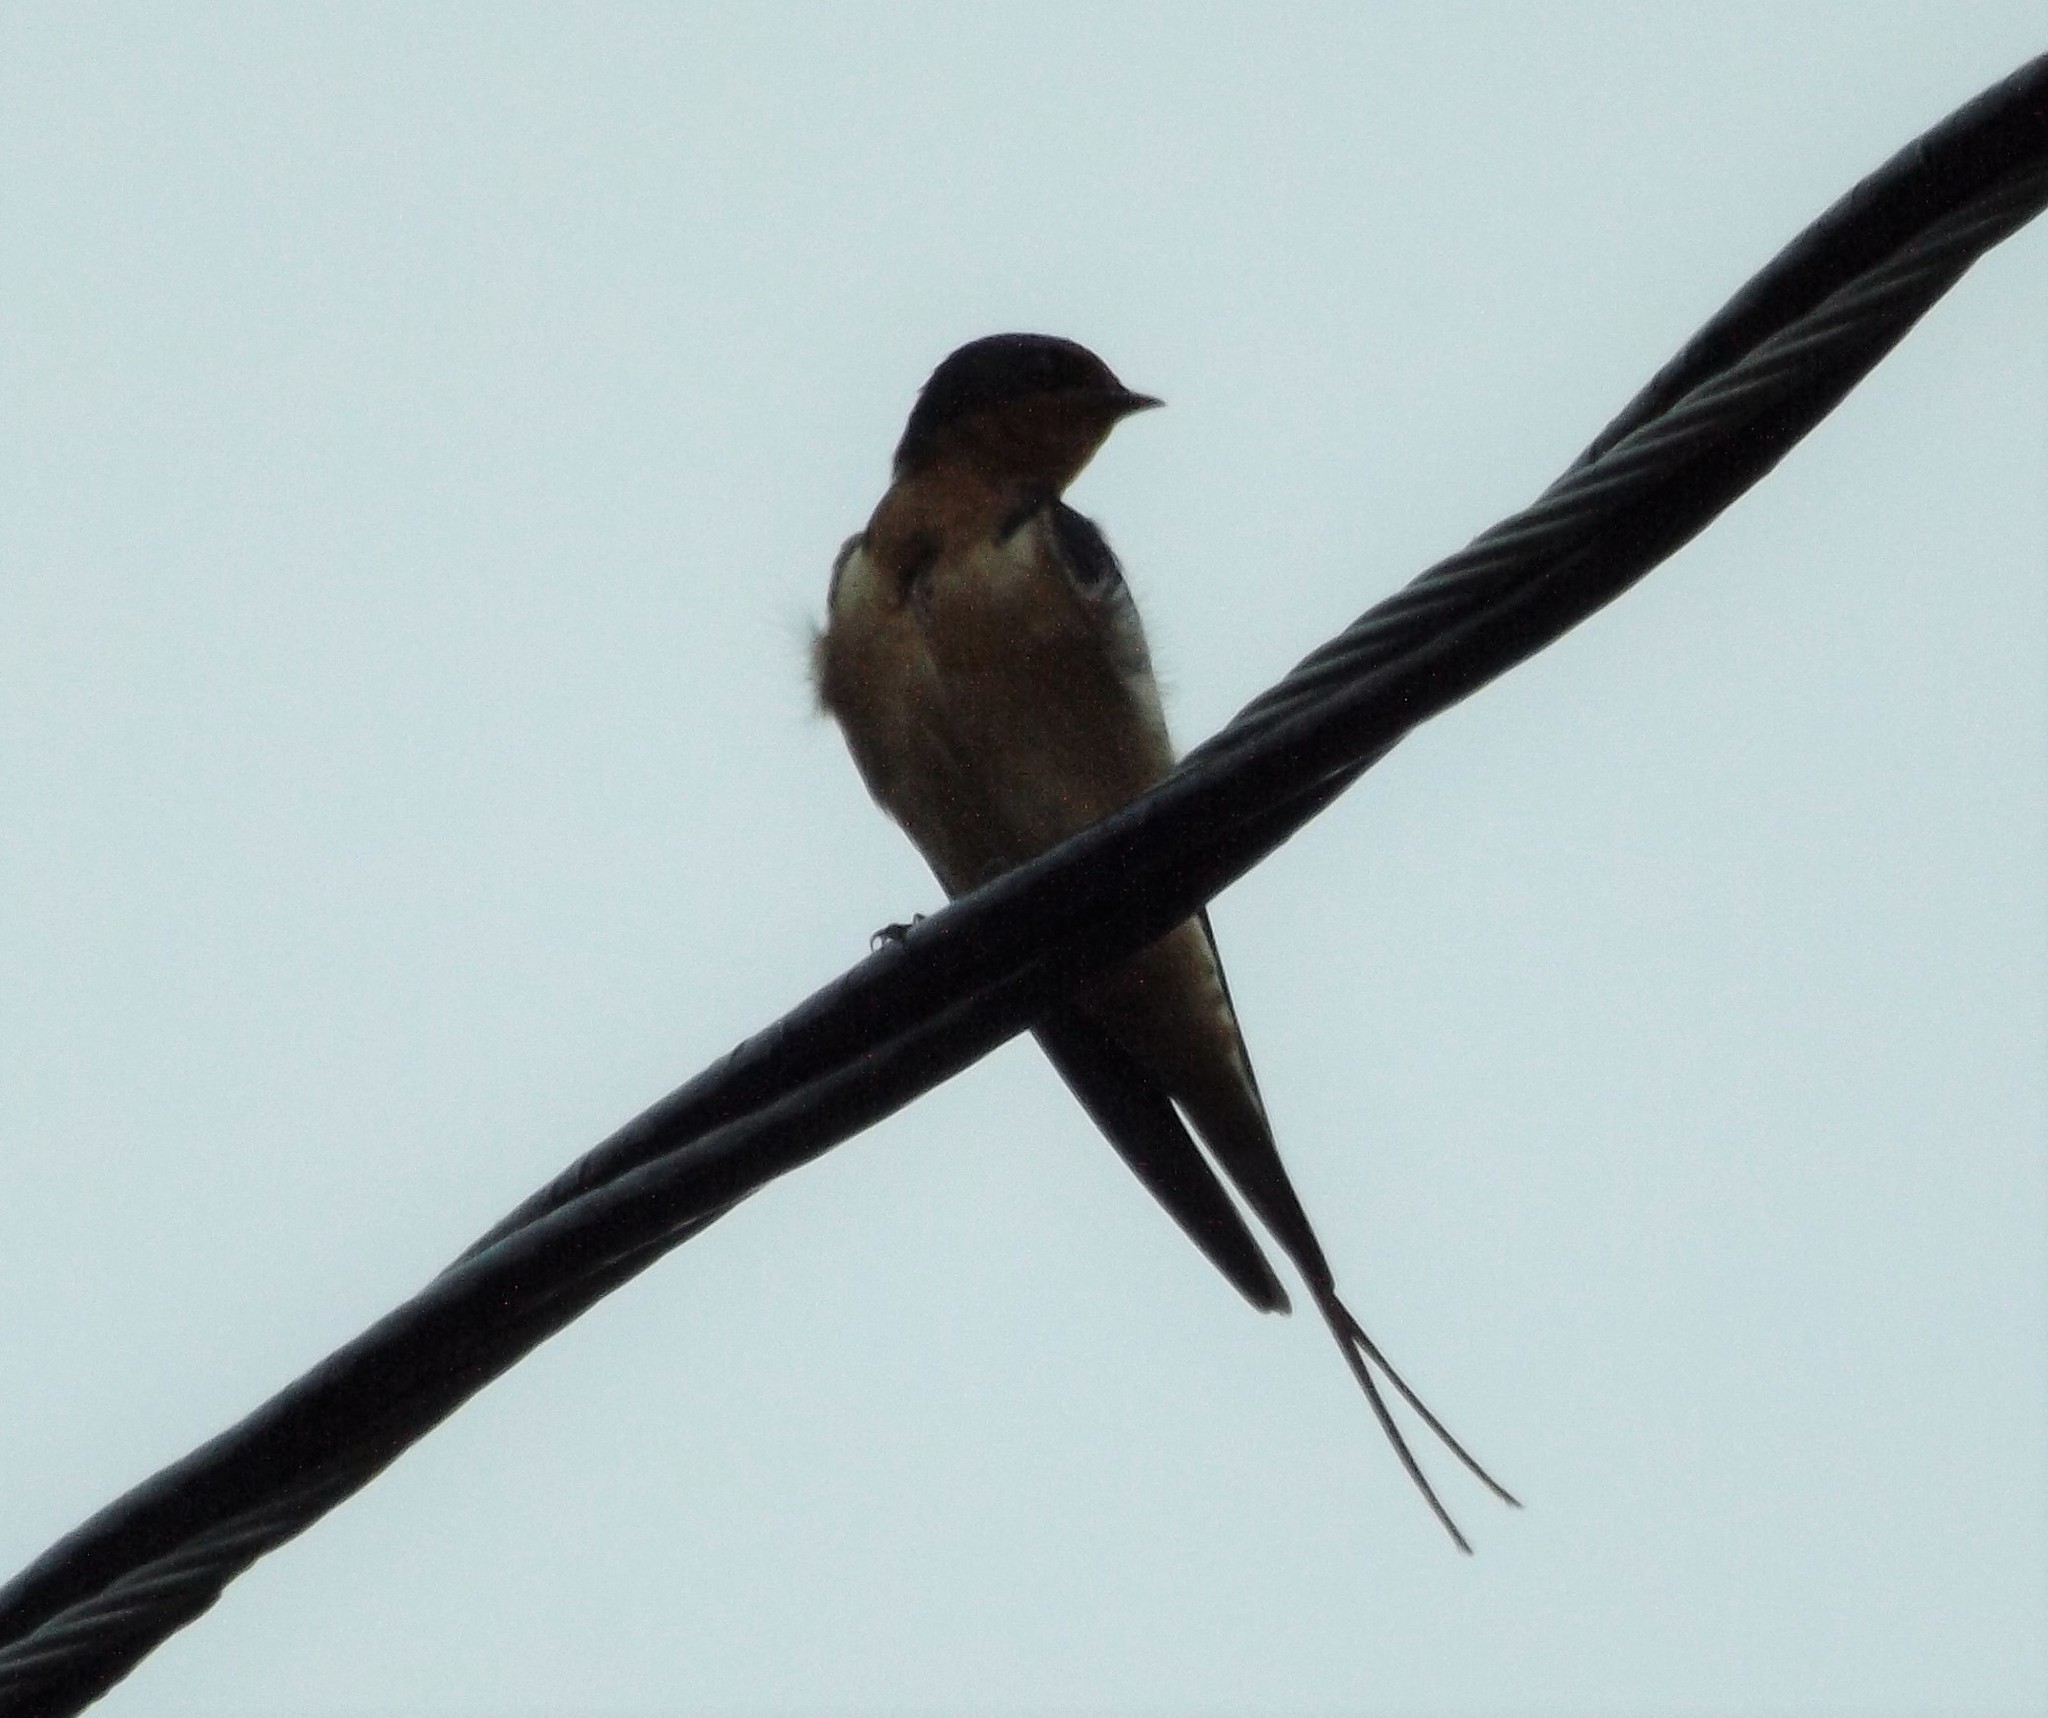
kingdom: Animalia
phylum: Chordata
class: Aves
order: Passeriformes
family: Hirundinidae
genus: Hirundo
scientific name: Hirundo rustica
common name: Barn swallow
